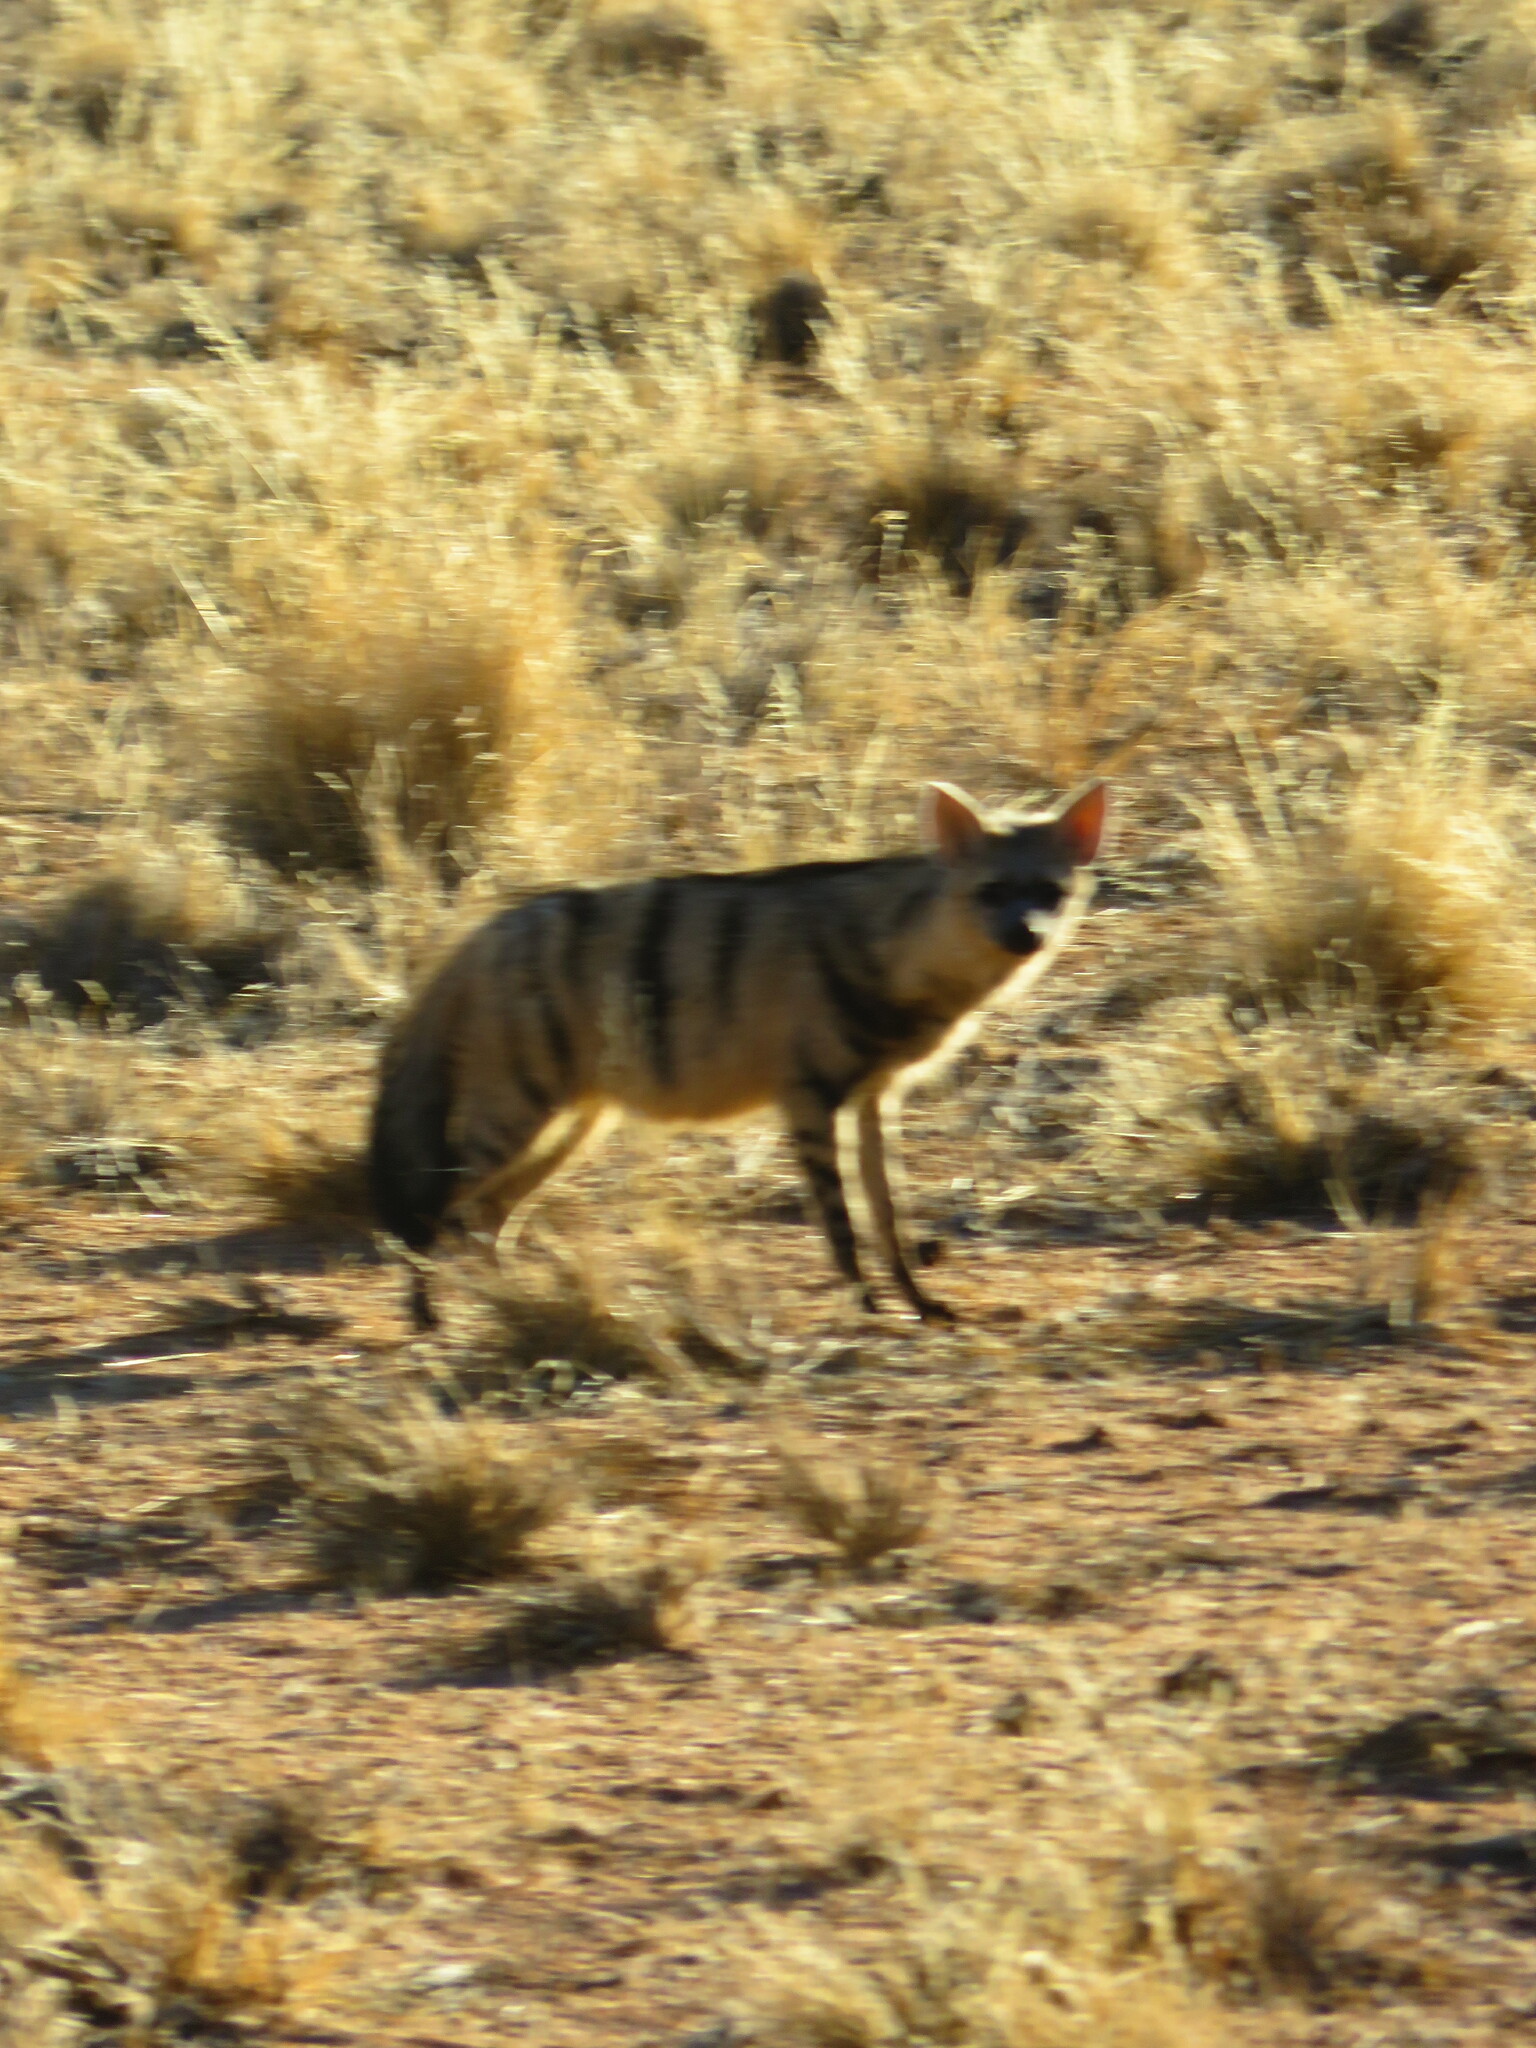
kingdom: Animalia
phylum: Chordata
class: Mammalia
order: Carnivora
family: Hyaenidae
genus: Proteles
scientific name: Proteles cristata
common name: Aardwolf
